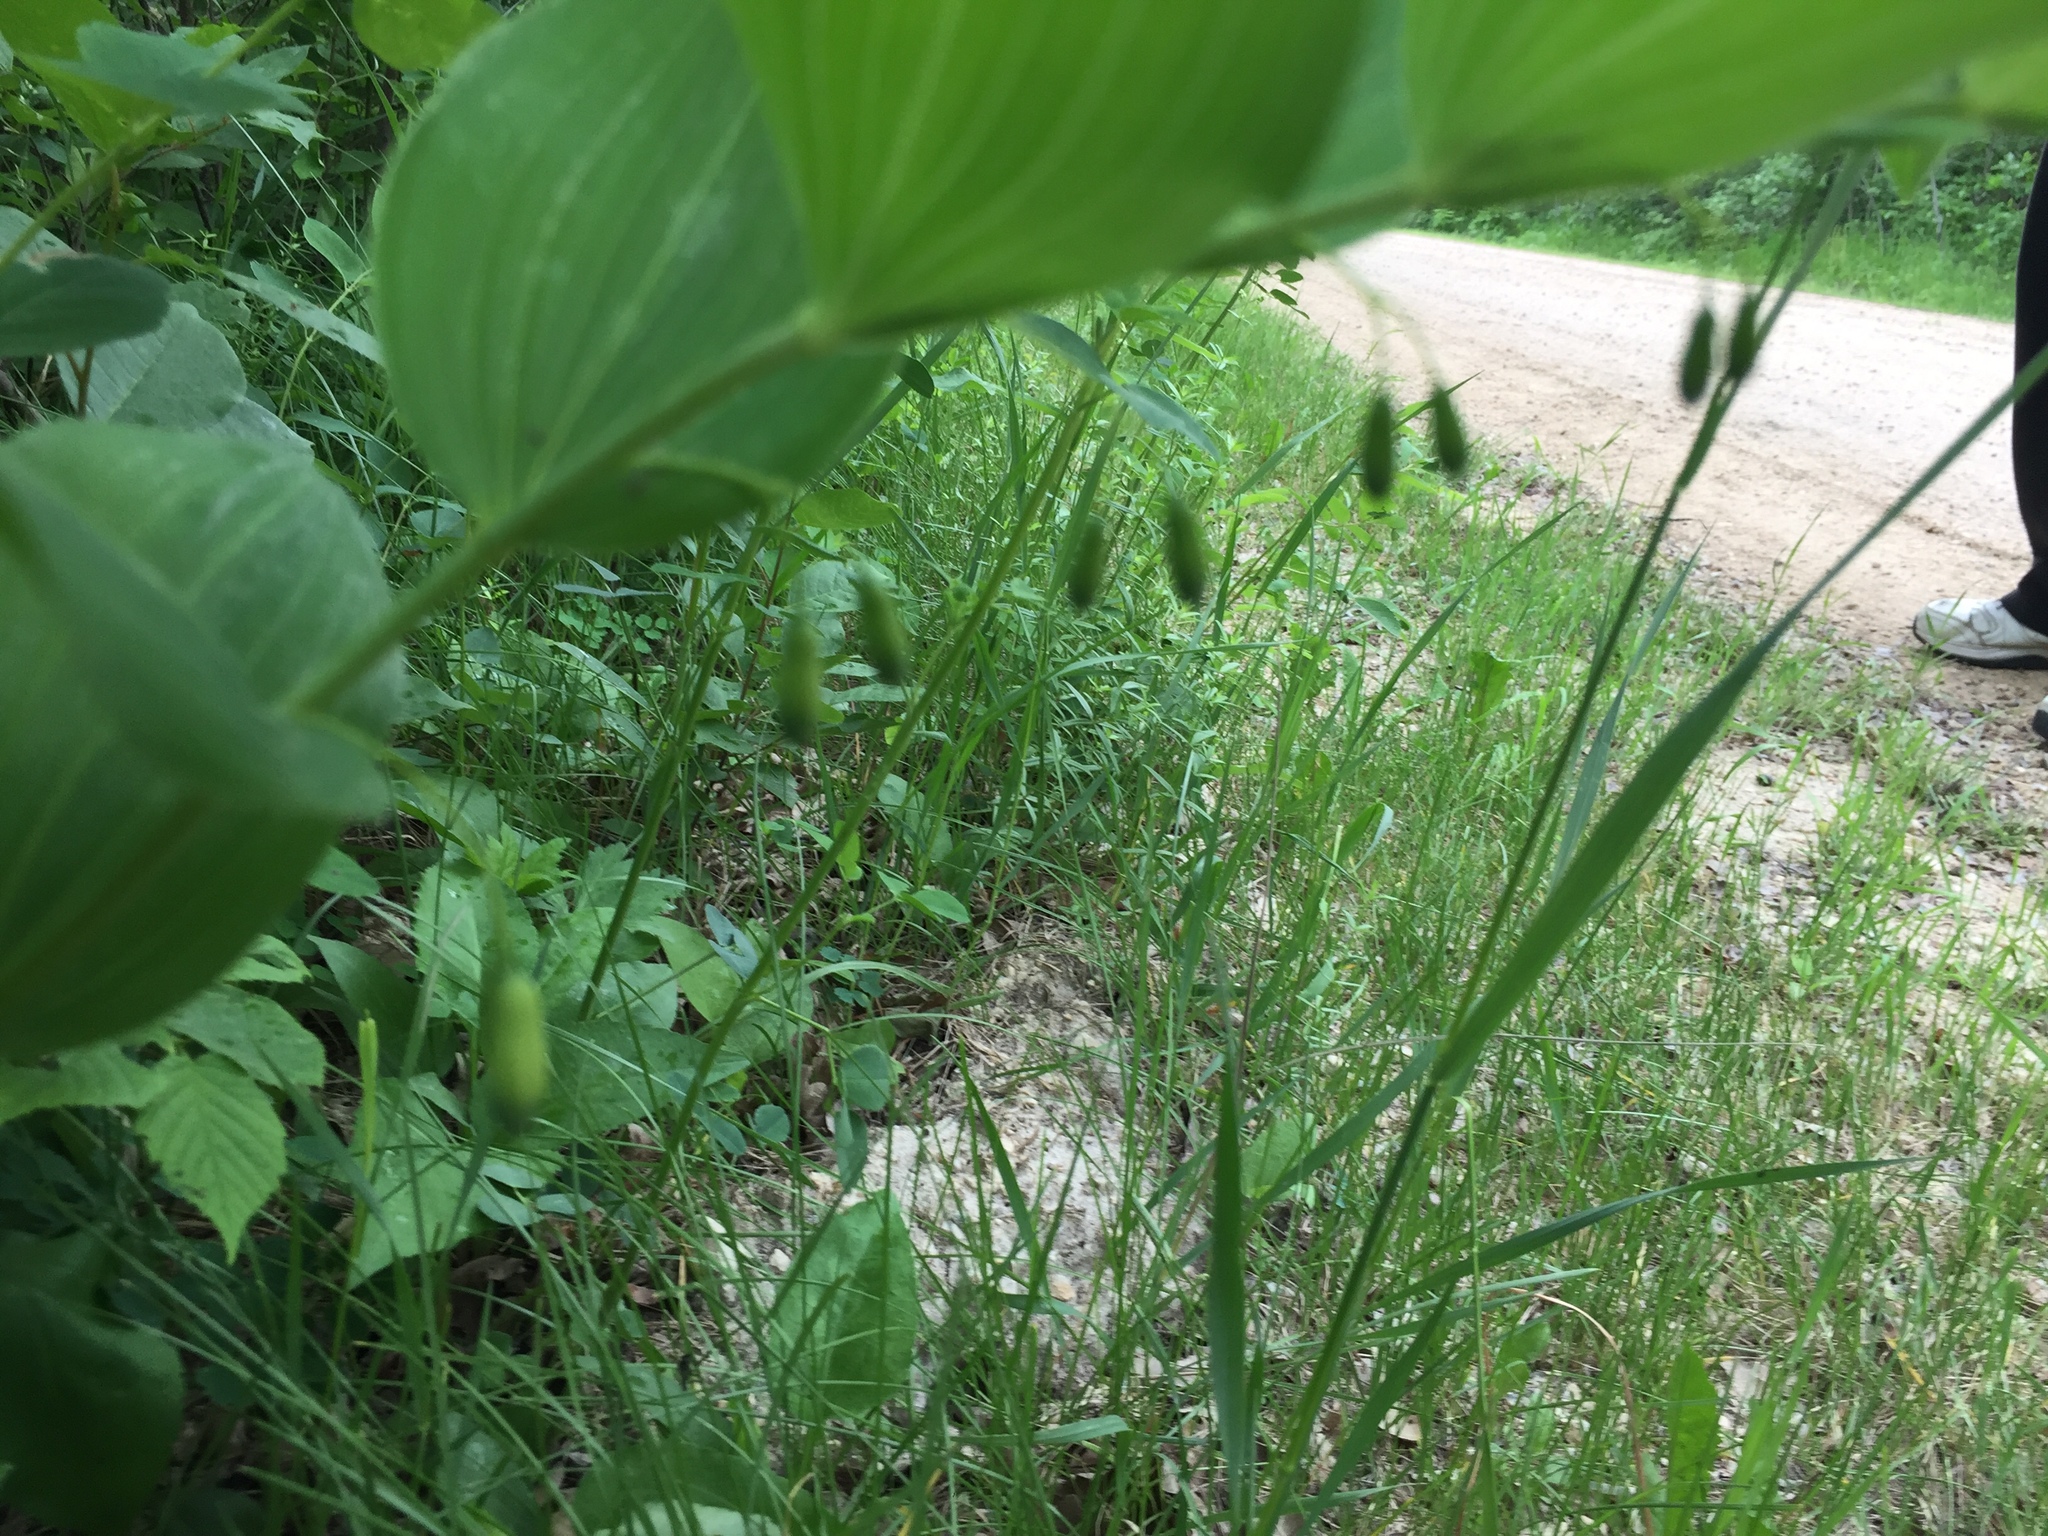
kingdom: Plantae
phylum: Tracheophyta
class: Liliopsida
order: Asparagales
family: Asparagaceae
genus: Polygonatum
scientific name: Polygonatum biflorum
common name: American solomon's-seal
